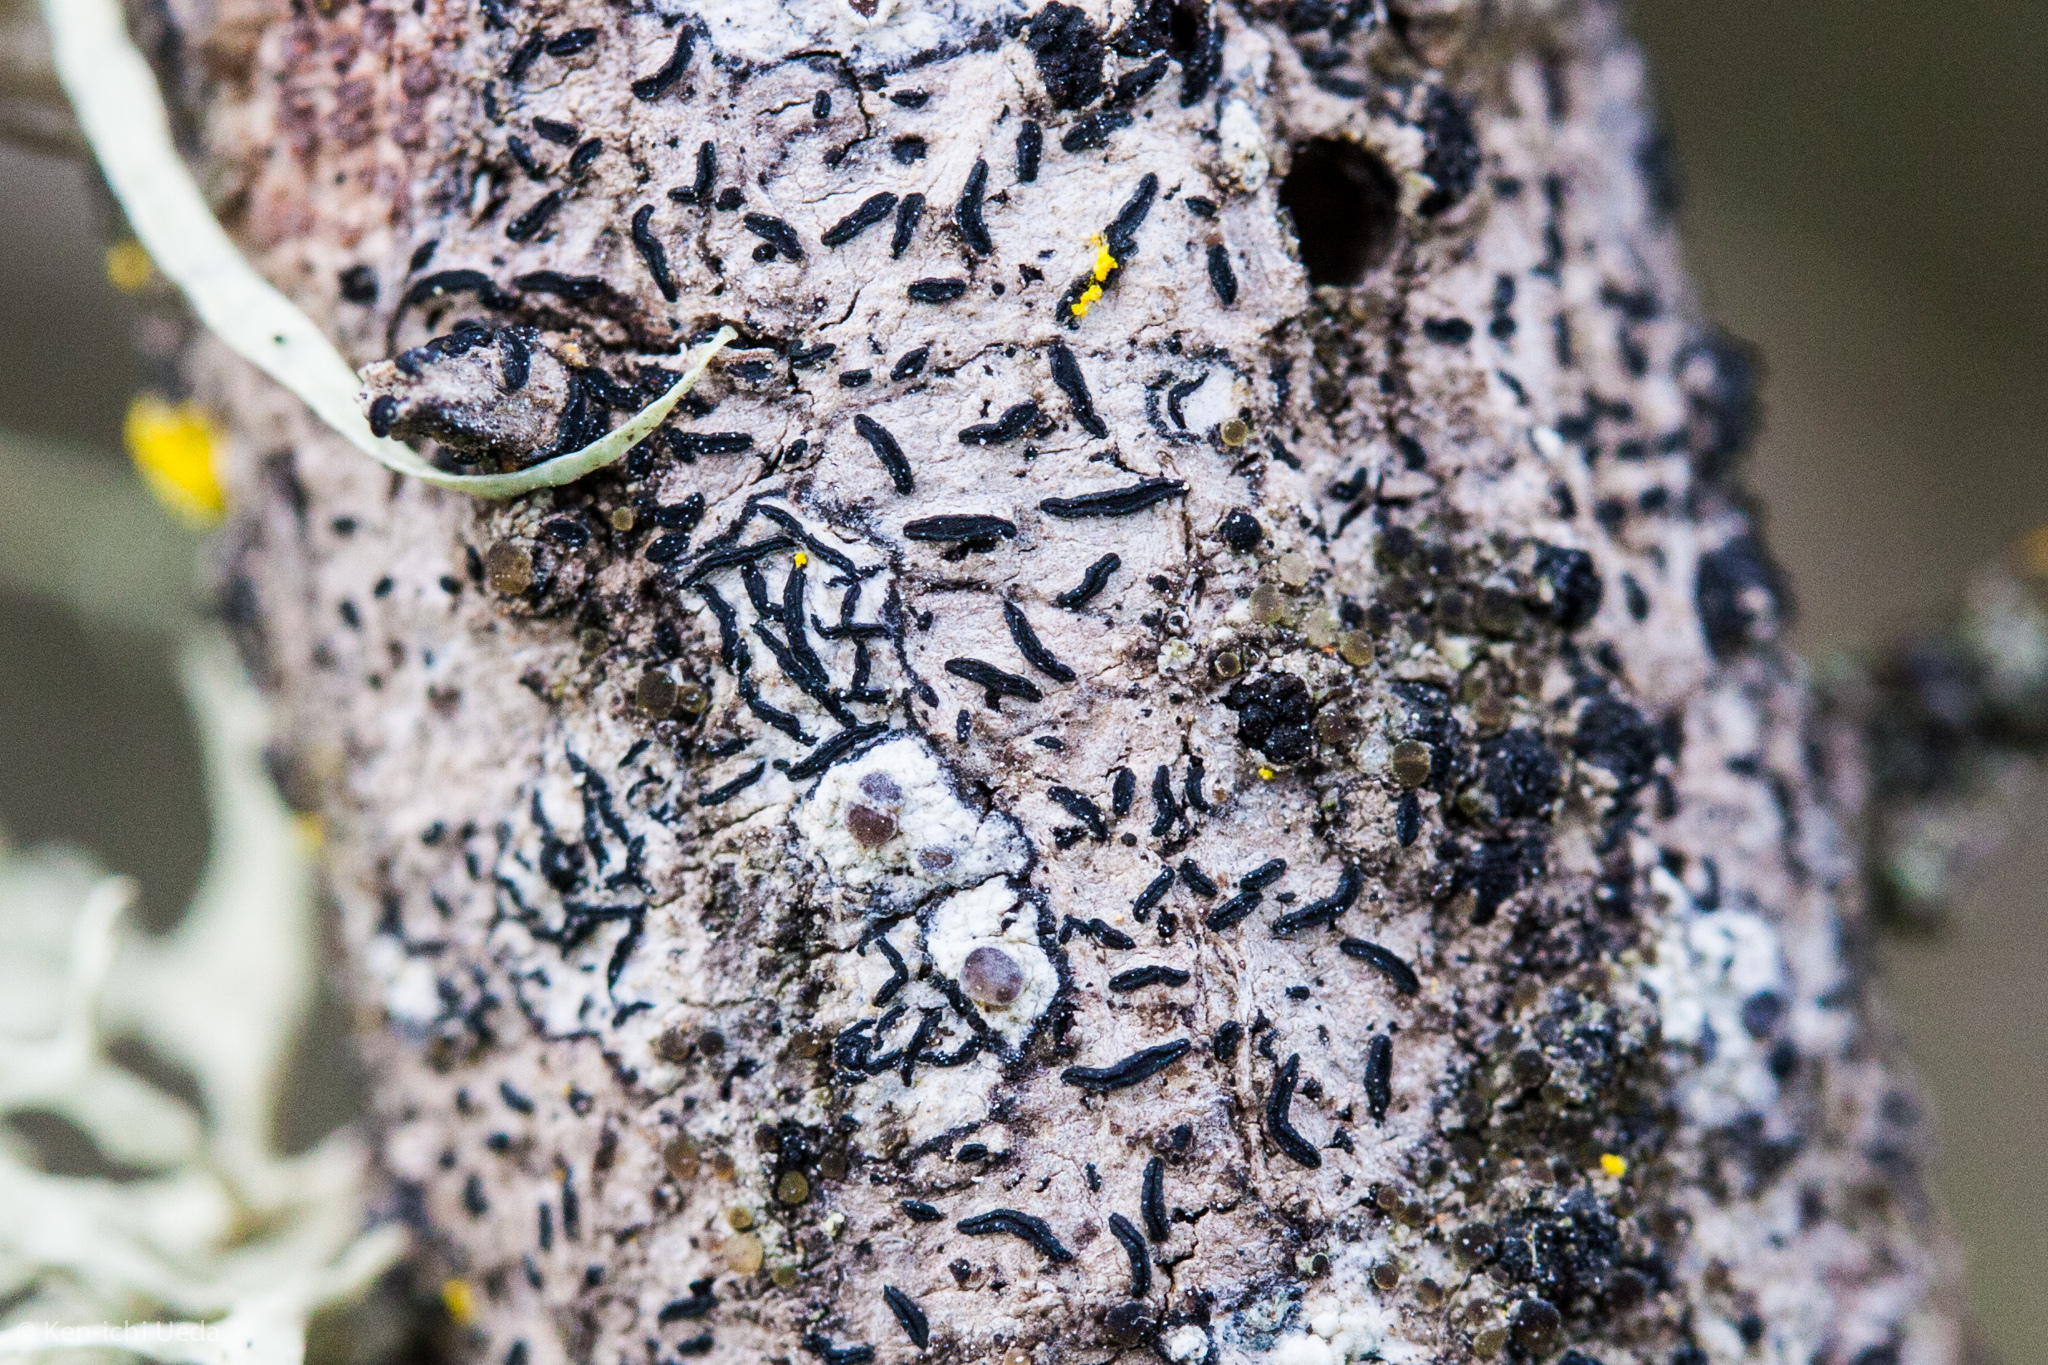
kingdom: Fungi
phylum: Ascomycota
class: Lecanoromycetes
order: Ostropales
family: Graphidaceae
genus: Graphis
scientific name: Graphis scripta
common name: Script lichen
